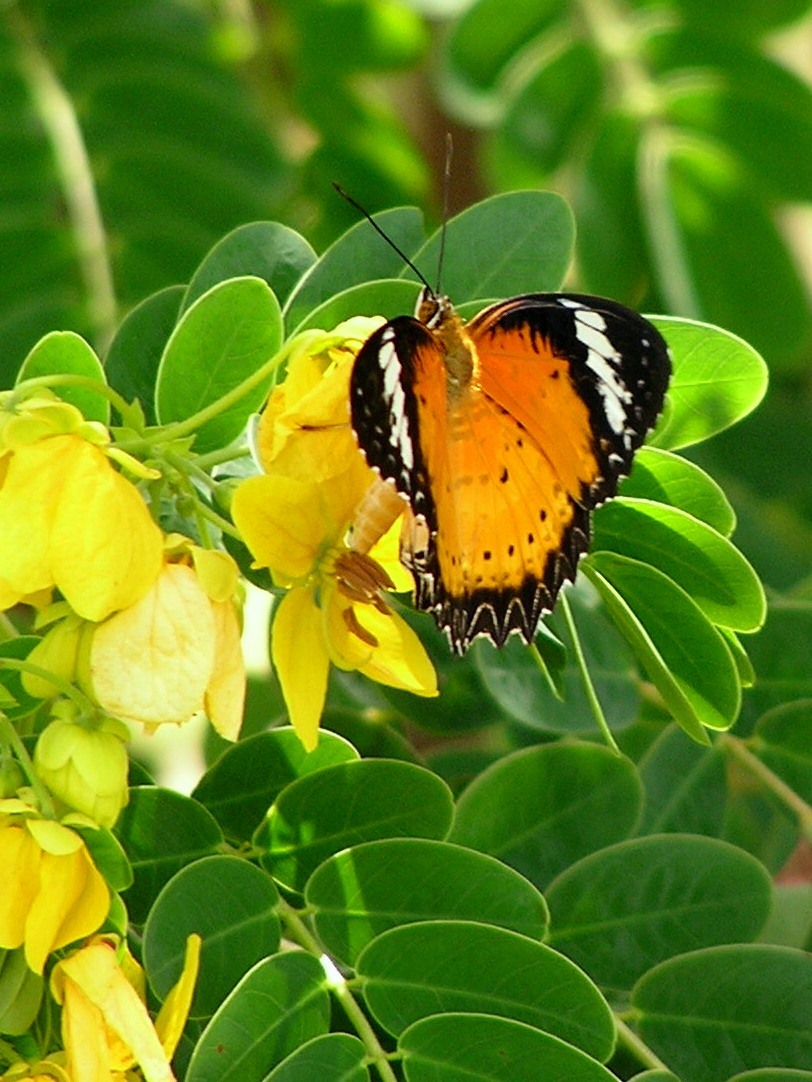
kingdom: Animalia
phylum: Arthropoda
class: Insecta
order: Lepidoptera
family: Nymphalidae
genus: Cethosia
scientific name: Cethosia cyane
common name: Leopard lacewing butterfly
